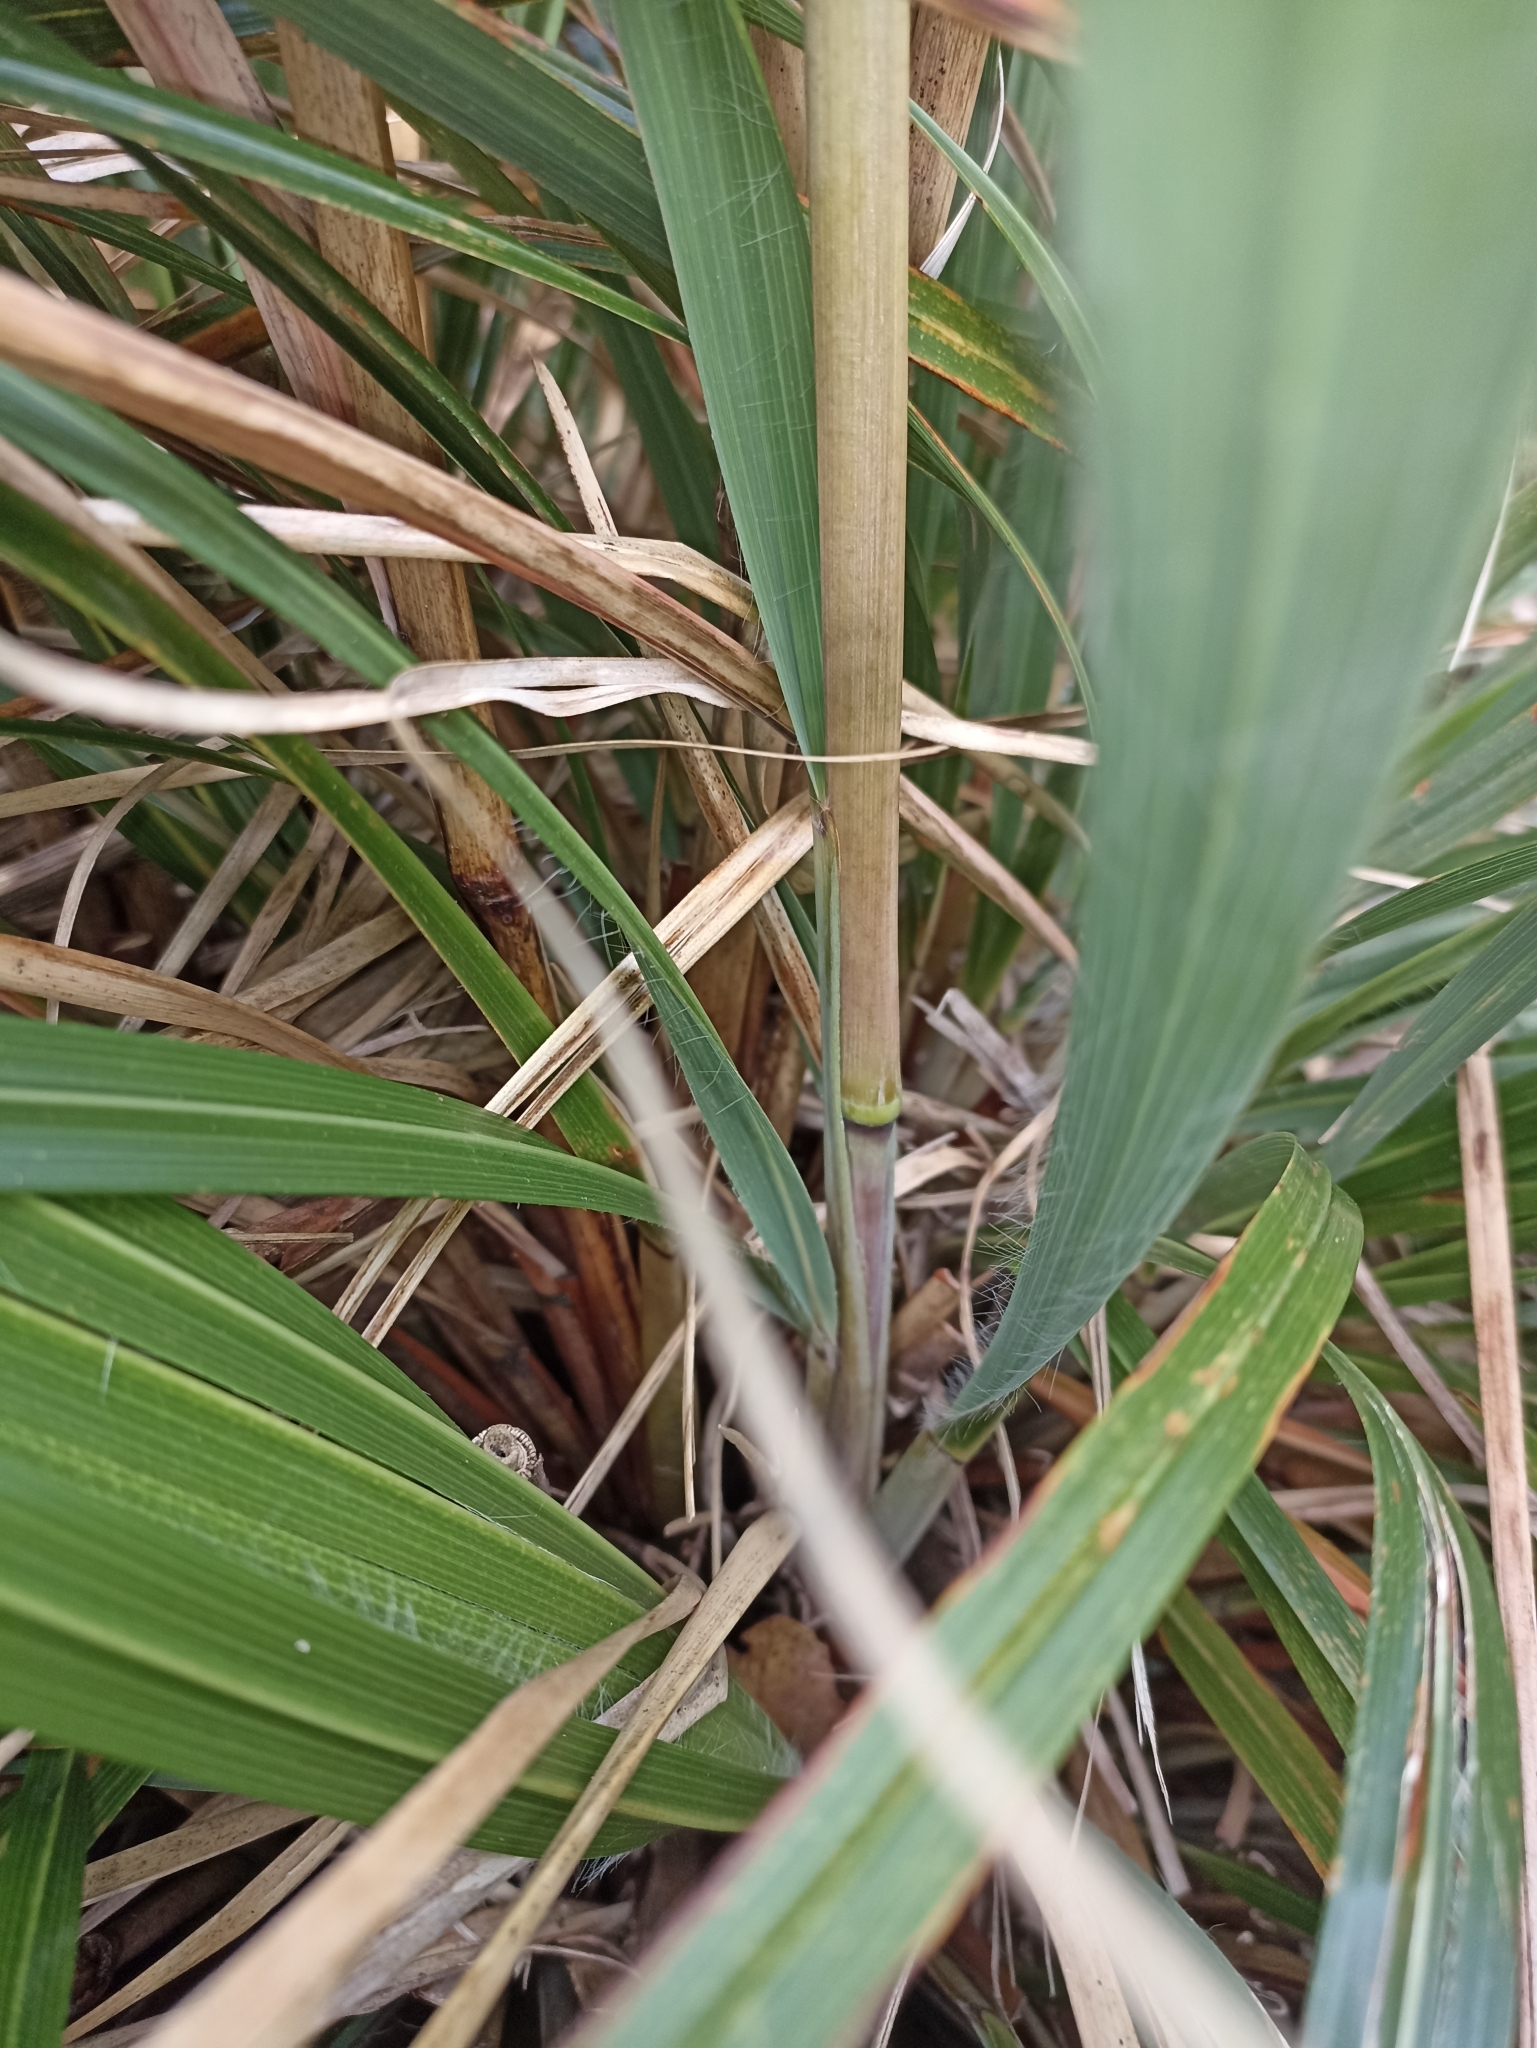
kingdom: Plantae
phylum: Tracheophyta
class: Liliopsida
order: Poales
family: Poaceae
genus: Chionochloa
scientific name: Chionochloa conspicua
